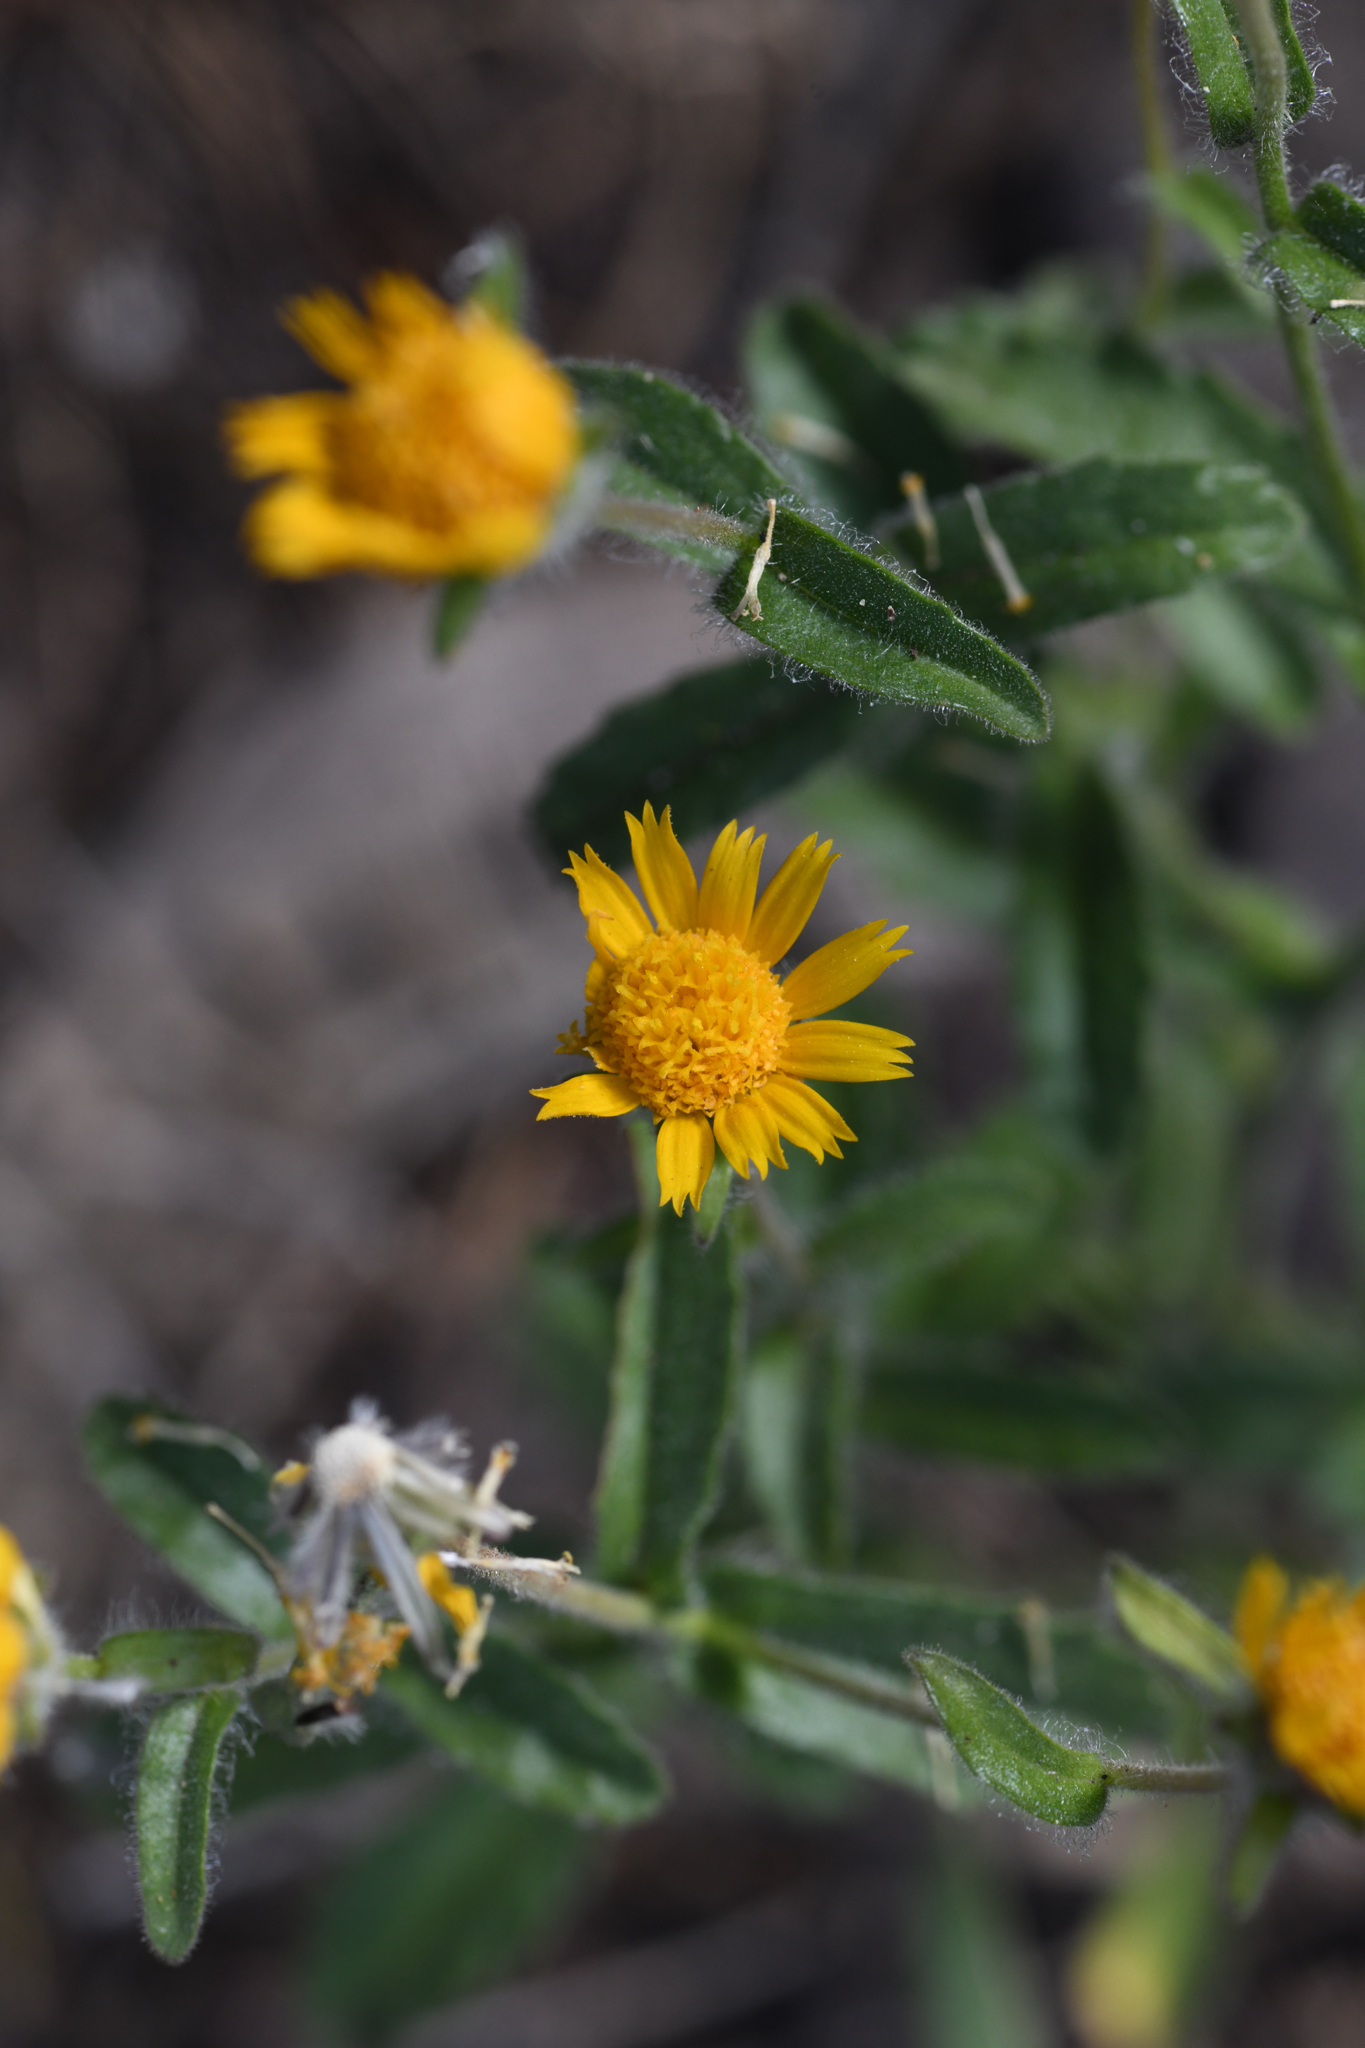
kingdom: Plantae
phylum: Tracheophyta
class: Magnoliopsida
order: Asterales
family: Asteraceae
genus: Hulsea
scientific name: Hulsea brevifolia
